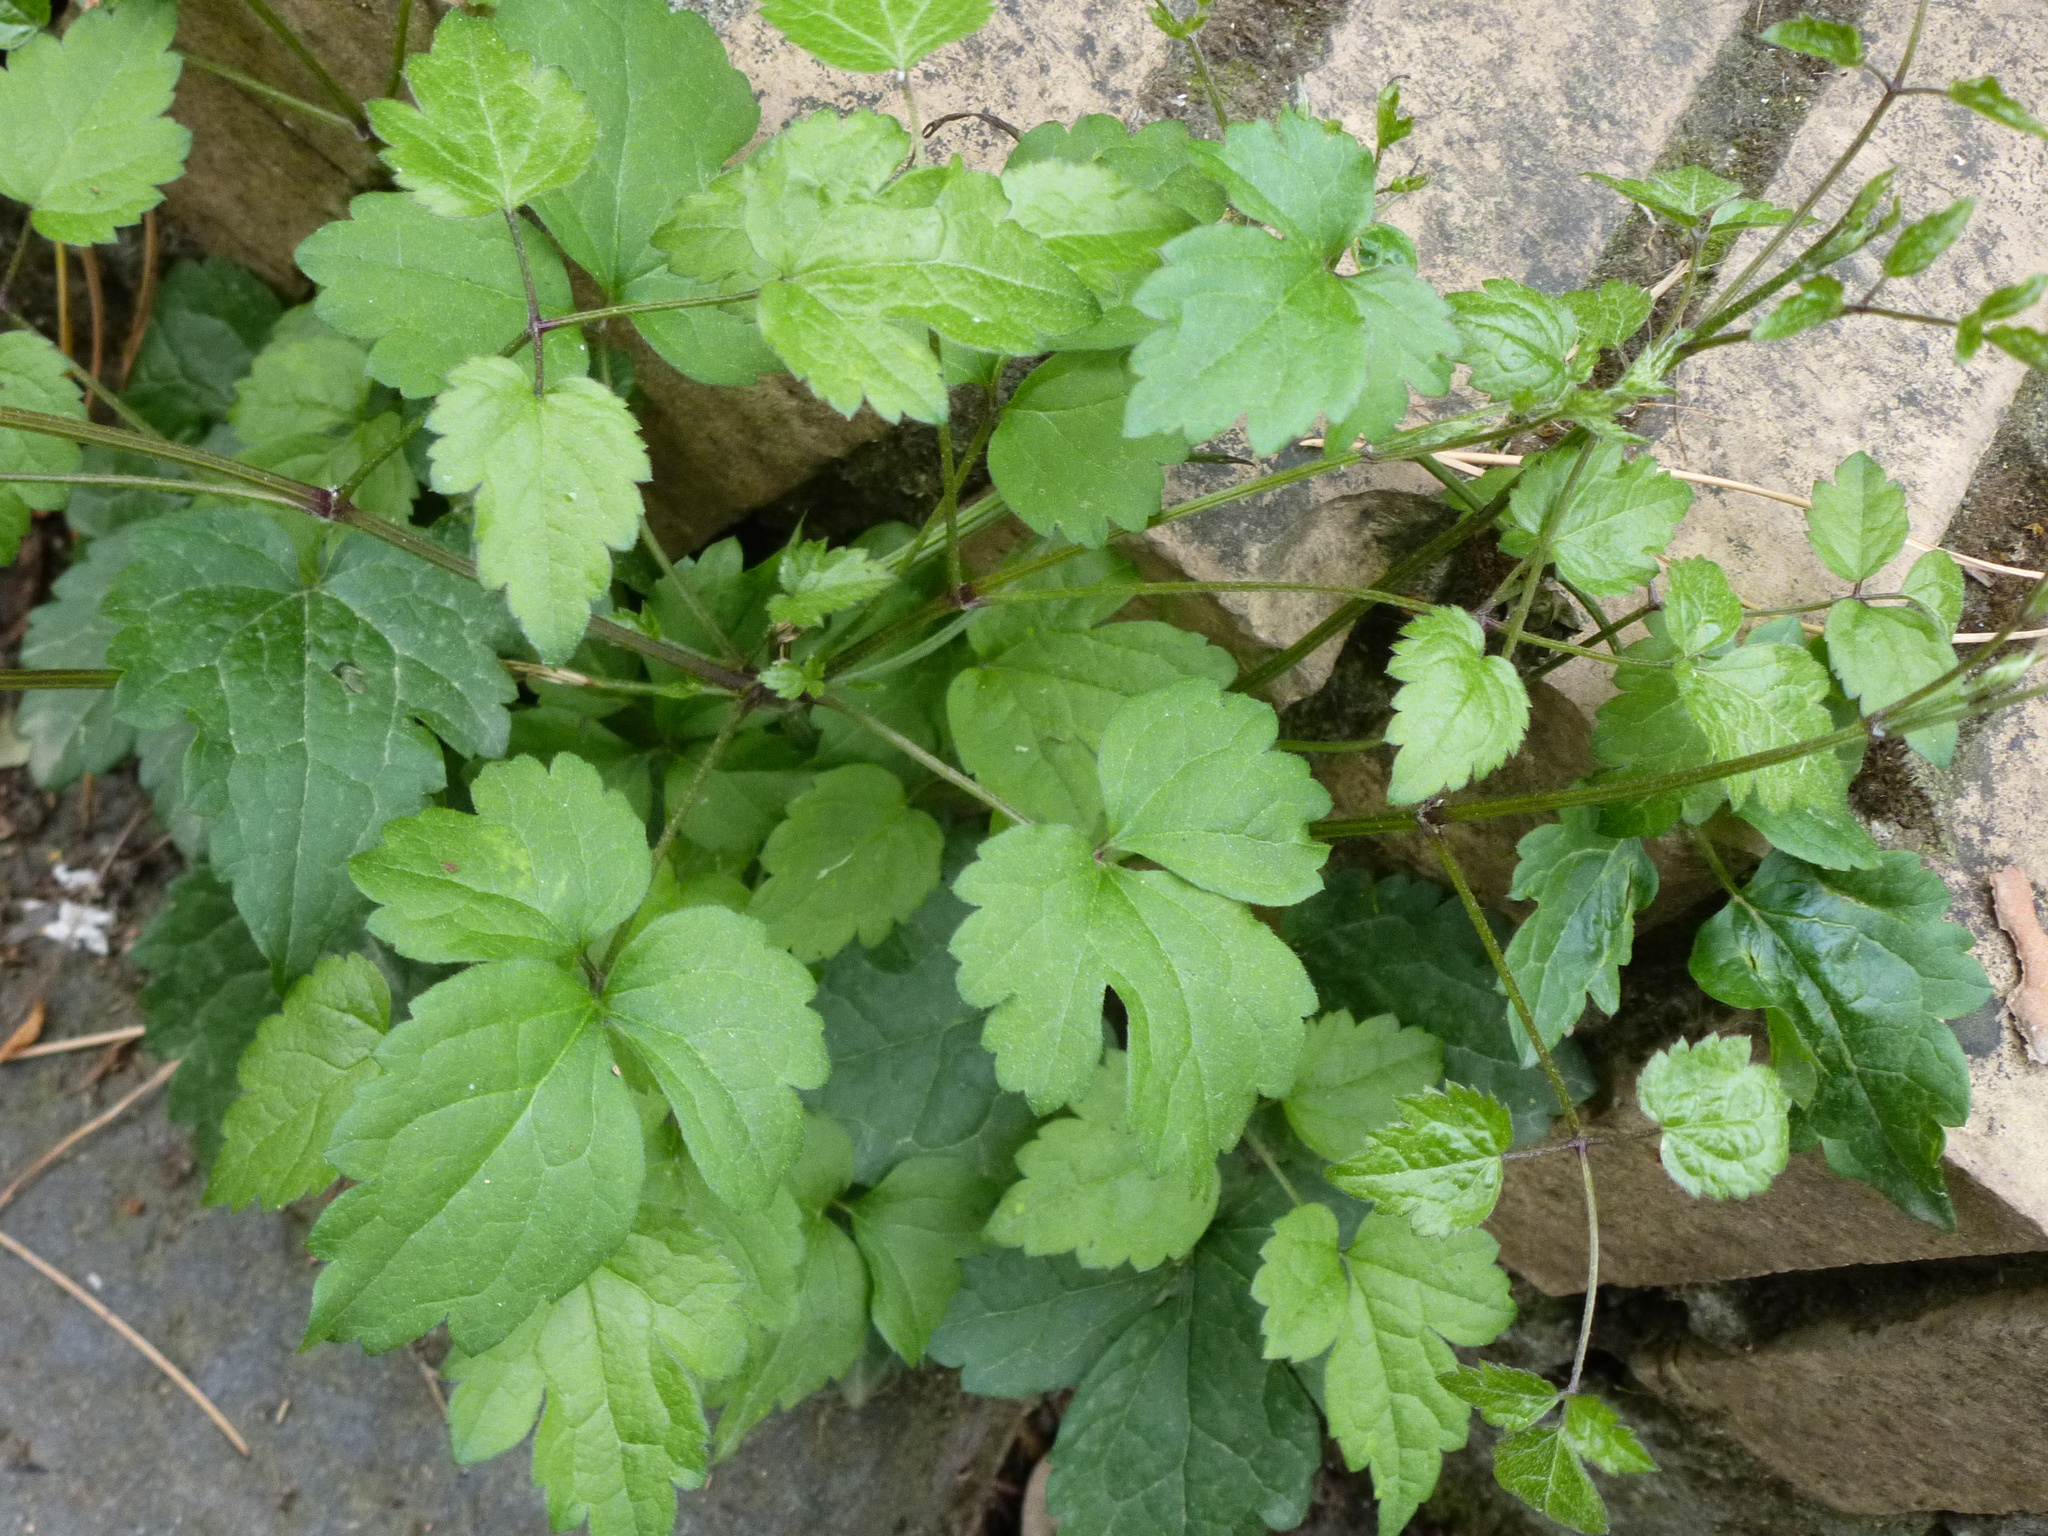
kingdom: Plantae
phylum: Tracheophyta
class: Magnoliopsida
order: Ranunculales
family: Ranunculaceae
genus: Clematis
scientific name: Clematis vitalba
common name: Evergreen clematis
